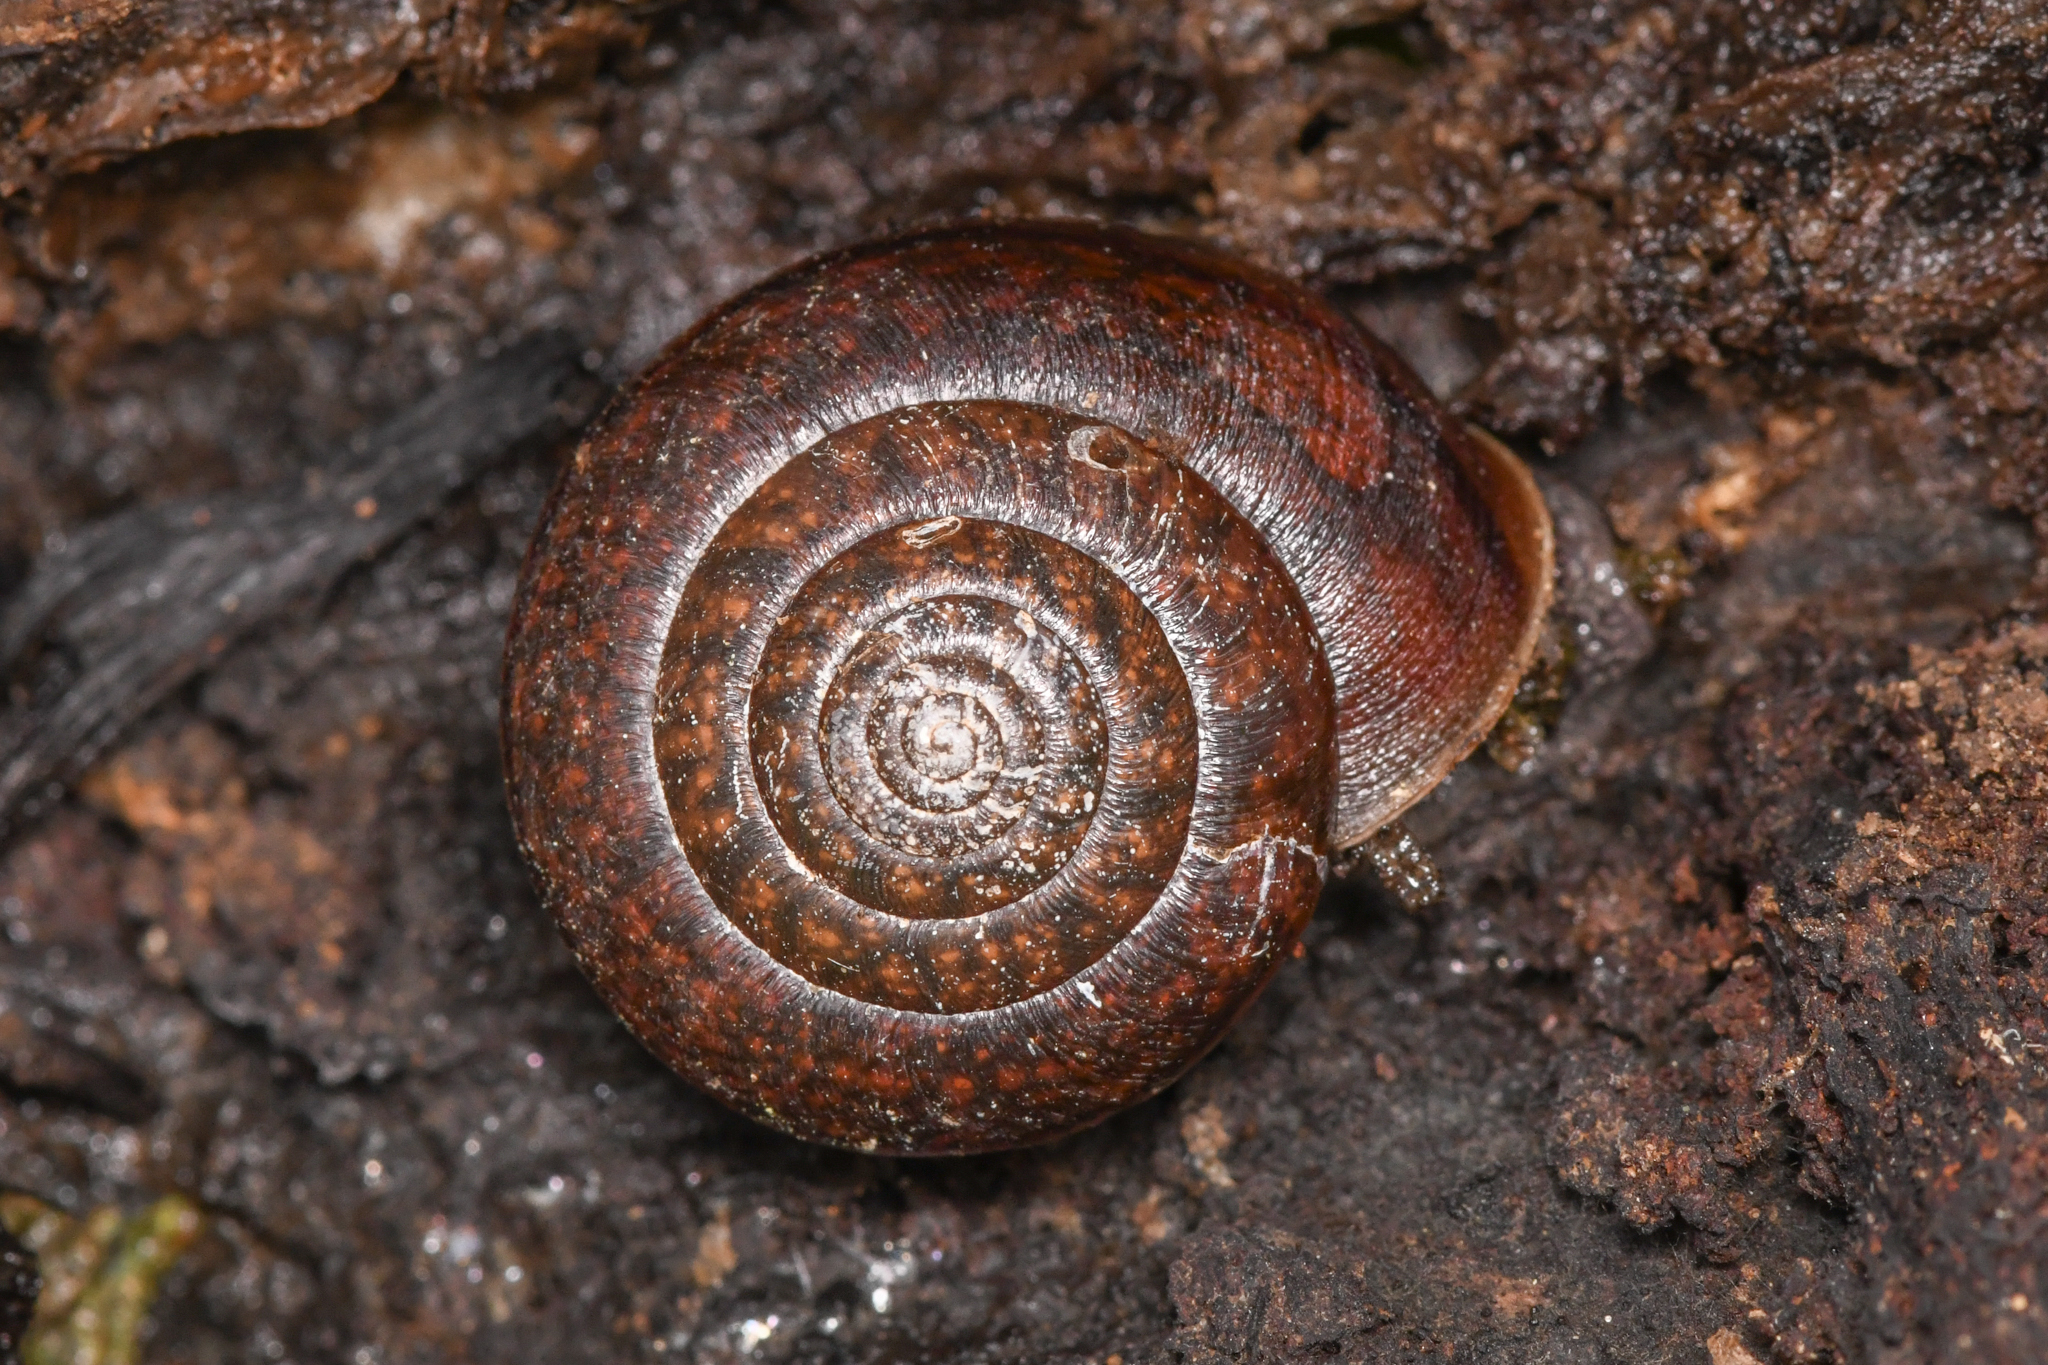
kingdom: Animalia
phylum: Mollusca
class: Gastropoda
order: Stylommatophora
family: Xanthonychidae
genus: Helminthoglypta
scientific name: Helminthoglypta diabloensis
